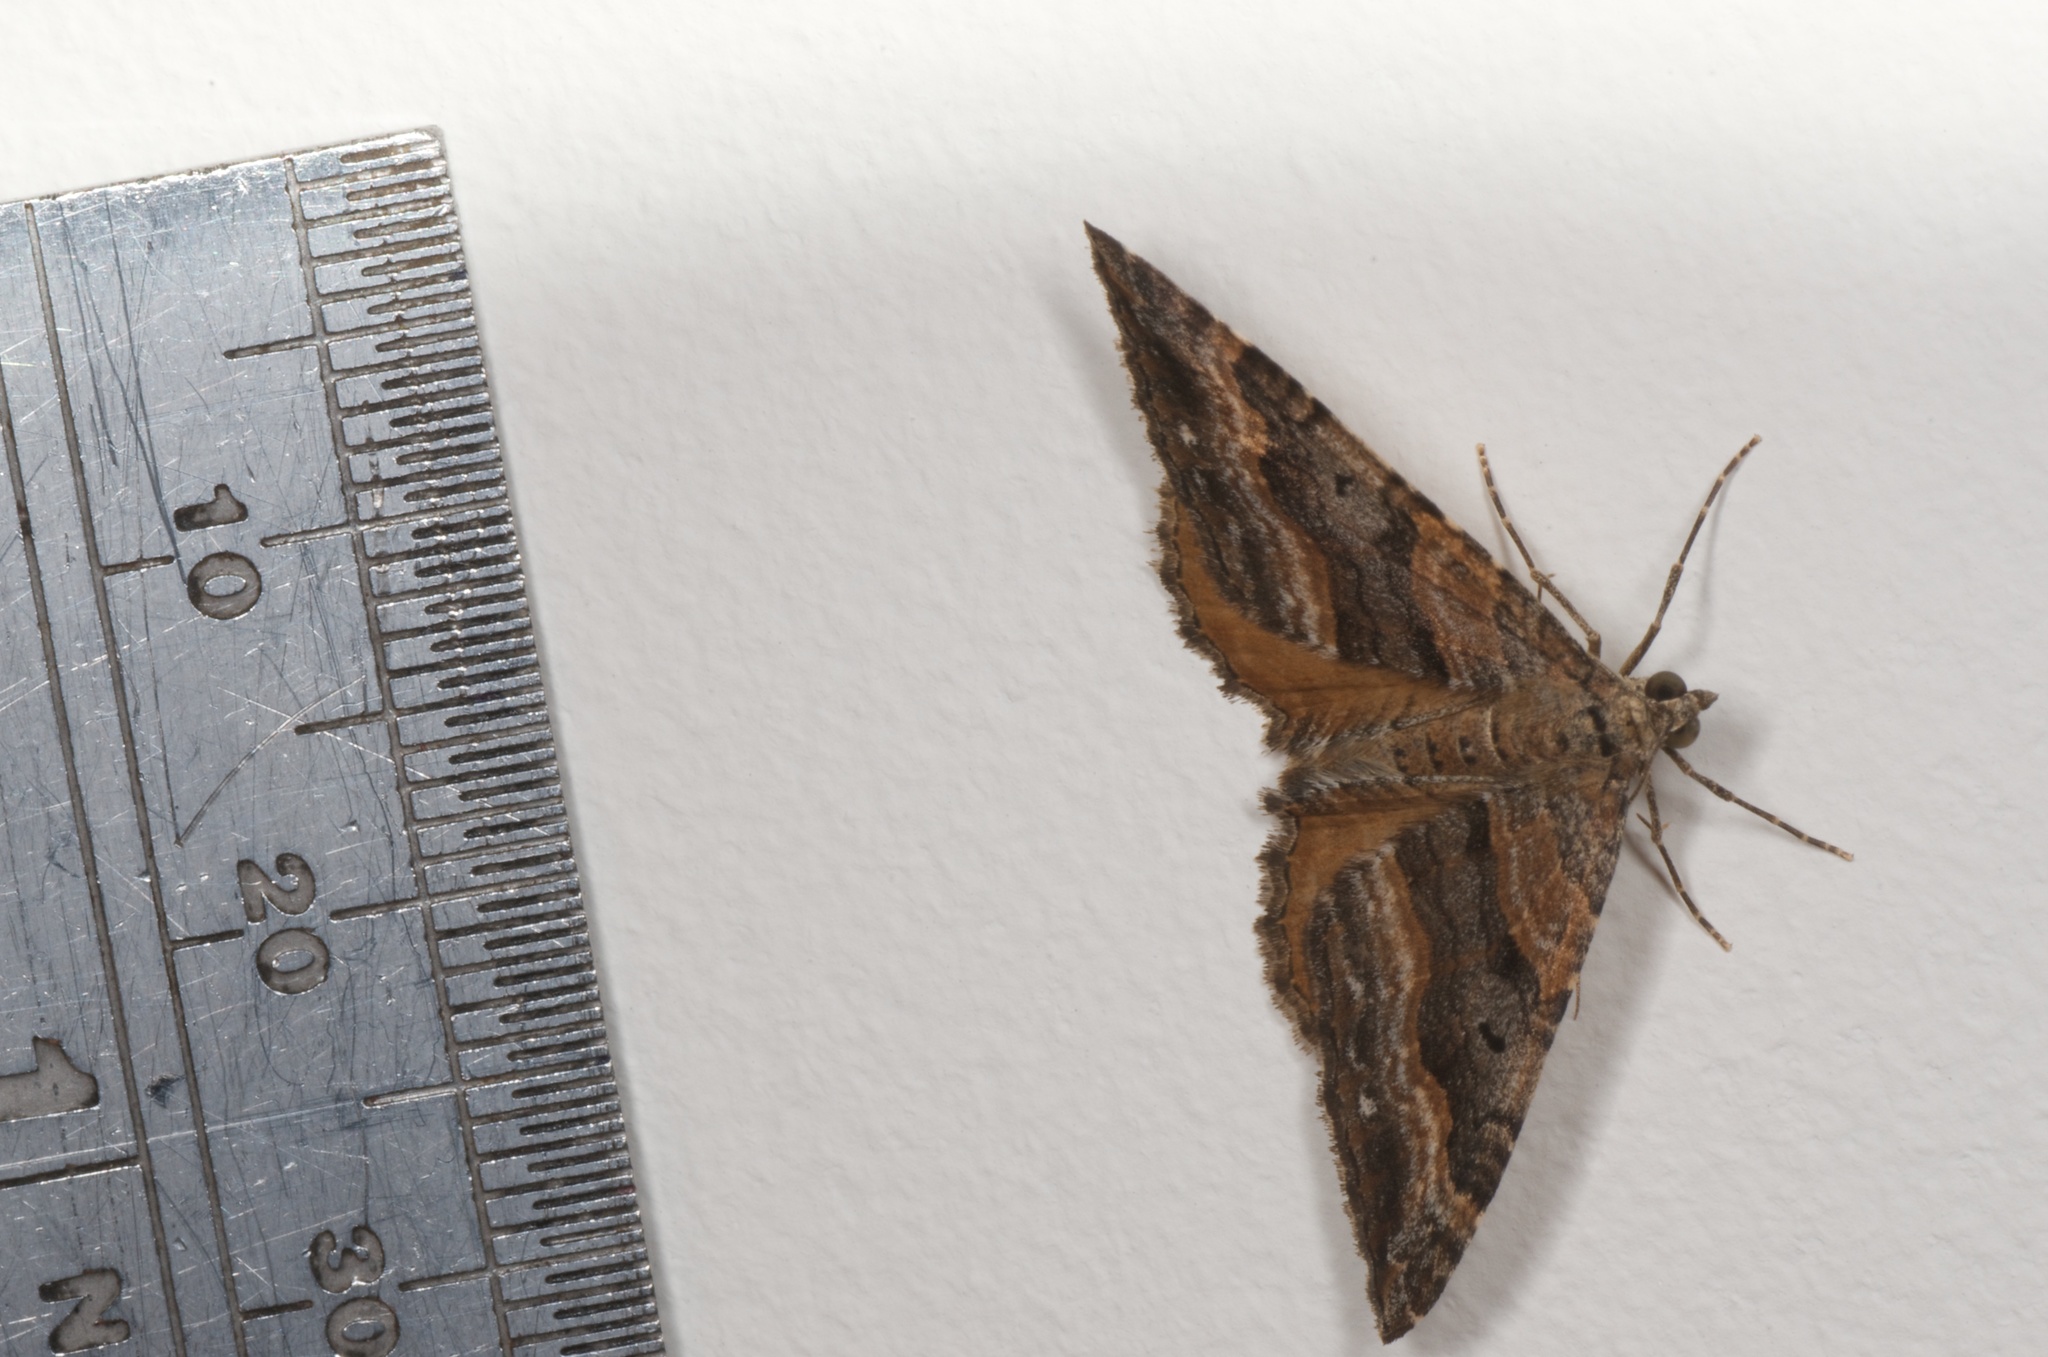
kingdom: Animalia
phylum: Arthropoda
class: Insecta
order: Lepidoptera
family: Geometridae
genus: Hydriomena
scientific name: Hydriomena deltoidata
